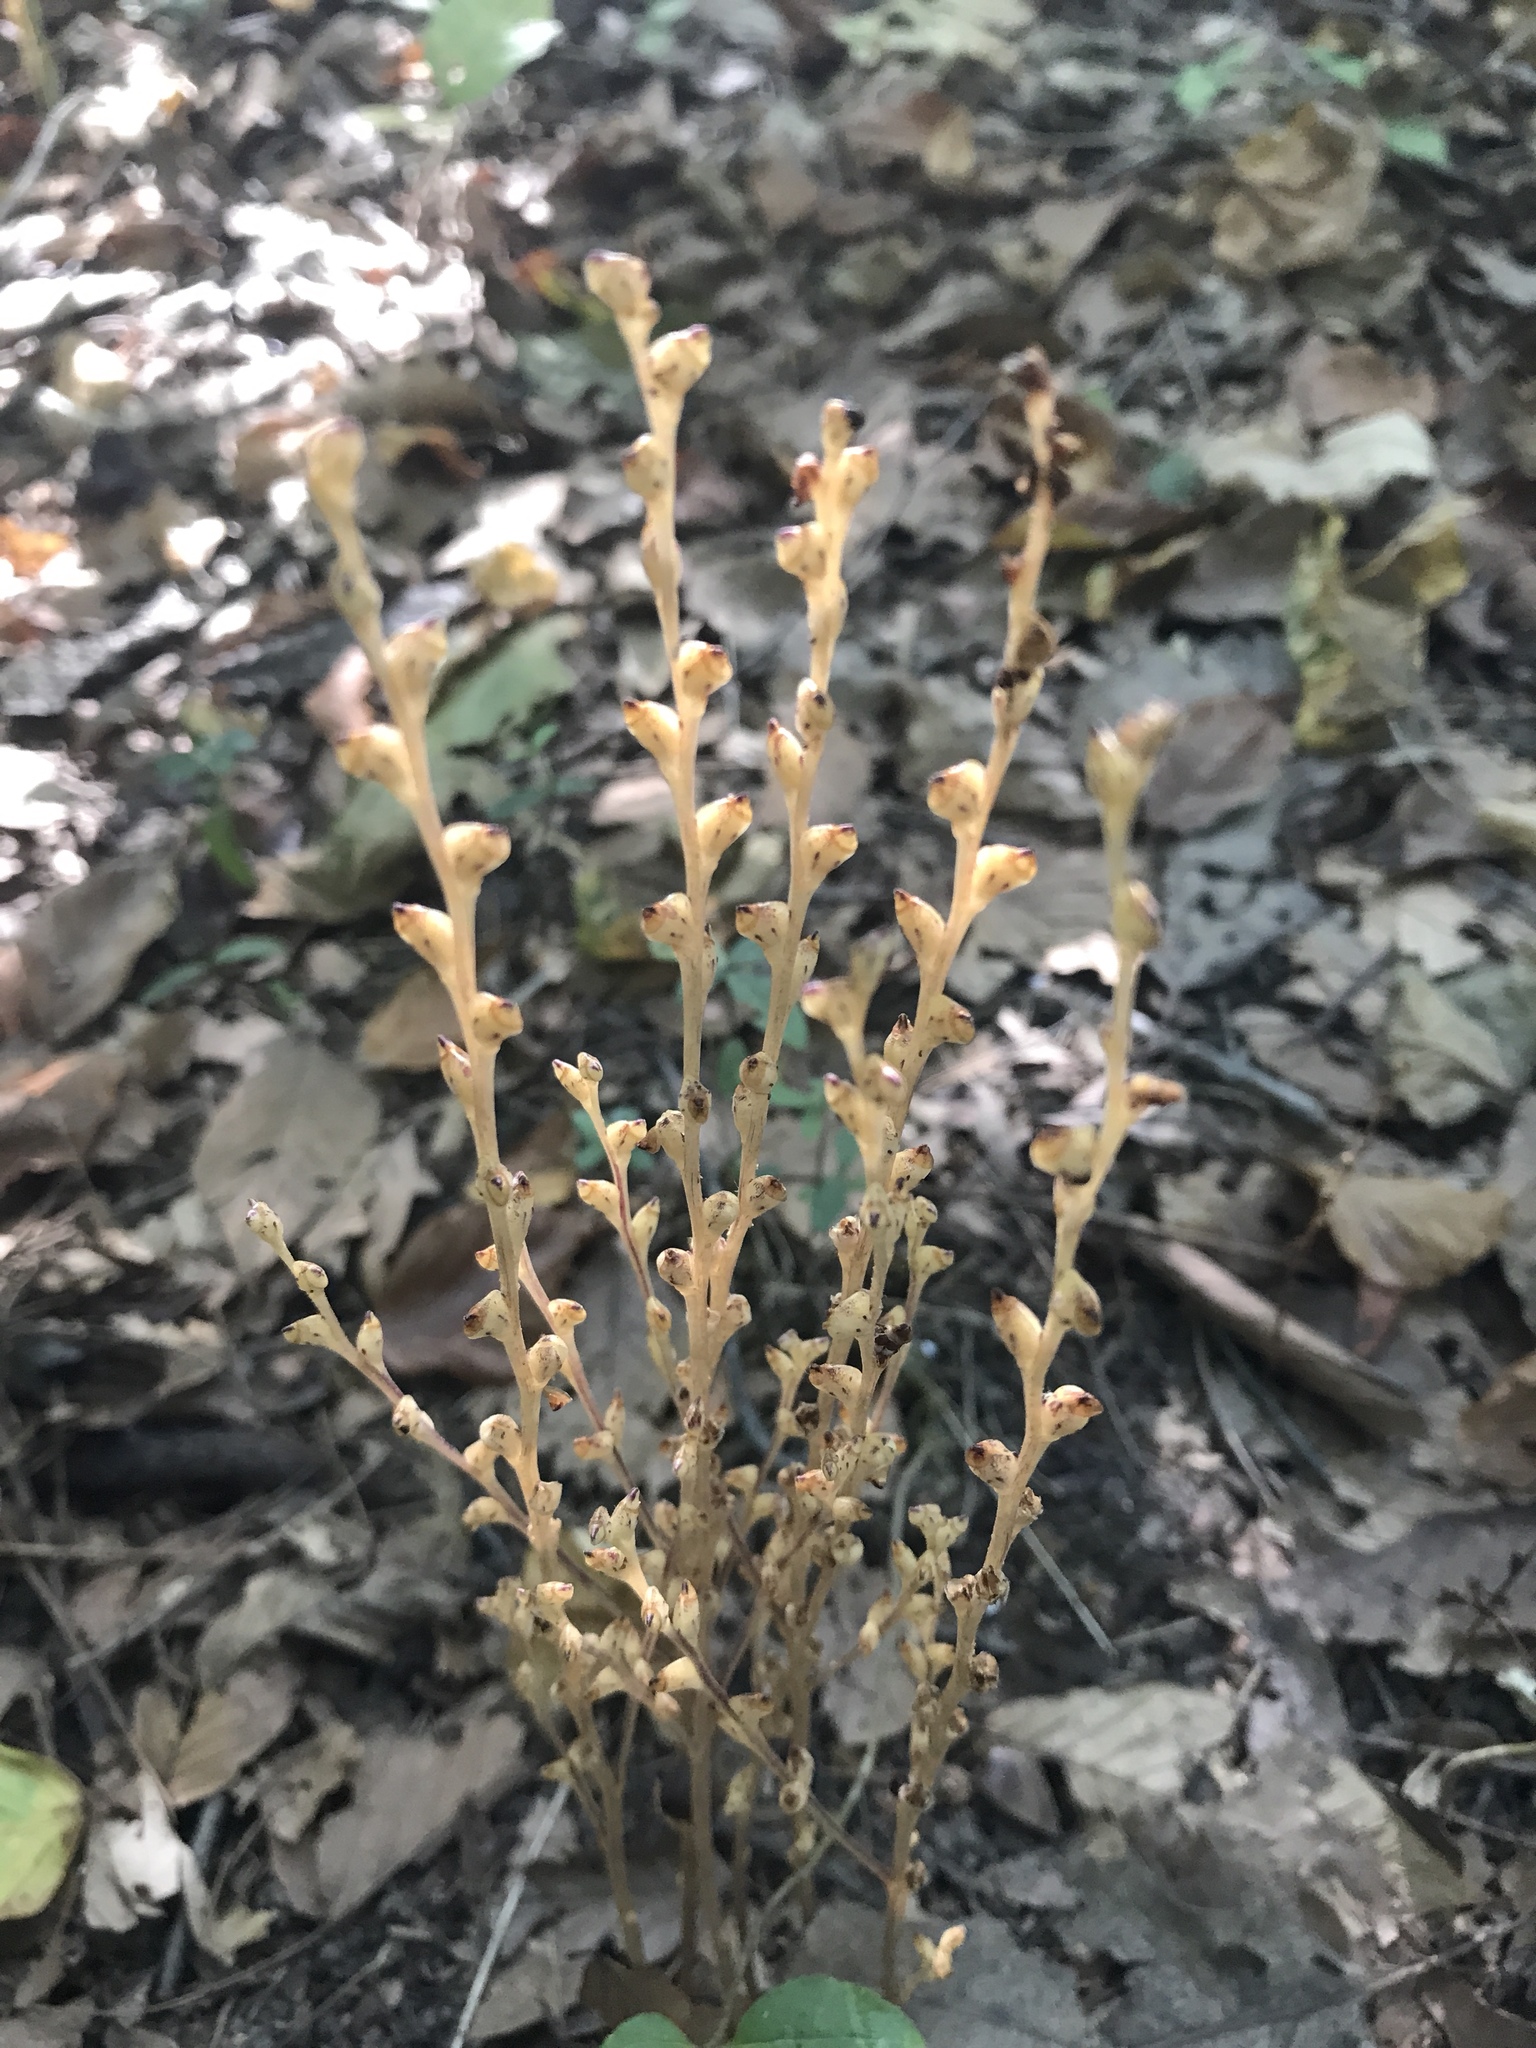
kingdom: Plantae
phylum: Tracheophyta
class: Magnoliopsida
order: Lamiales
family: Orobanchaceae
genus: Epifagus
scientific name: Epifagus virginiana
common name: Beechdrops
